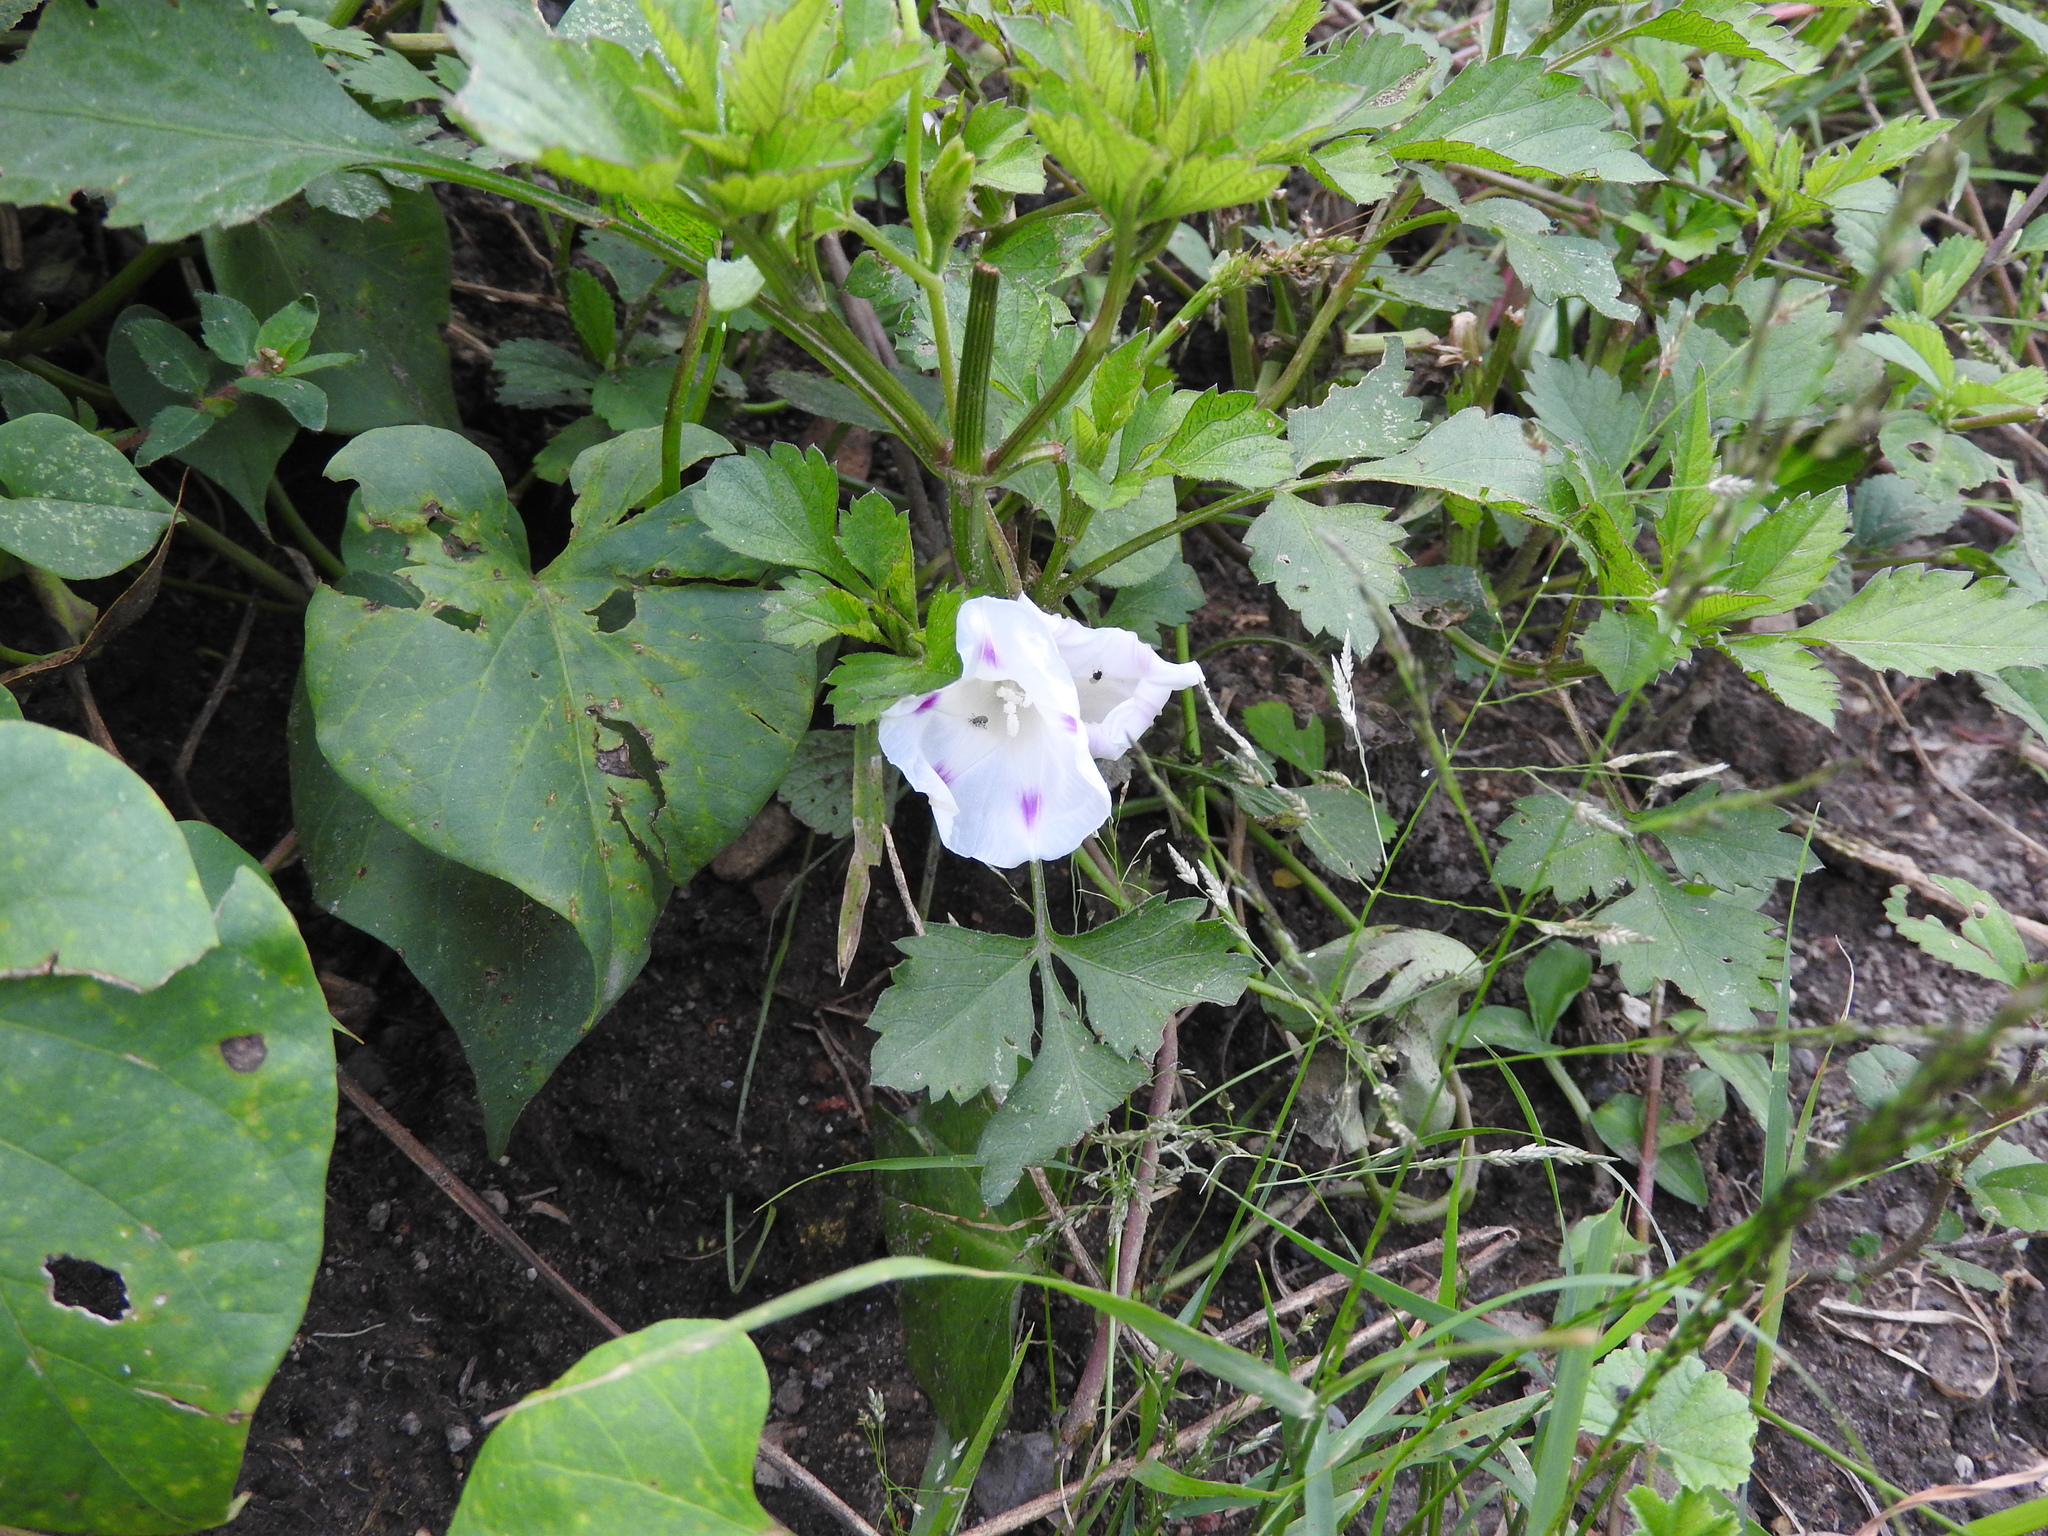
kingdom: Plantae
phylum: Tracheophyta
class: Magnoliopsida
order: Solanales
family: Convolvulaceae
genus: Ipomoea
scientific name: Ipomoea purpurea
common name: Common morning-glory
